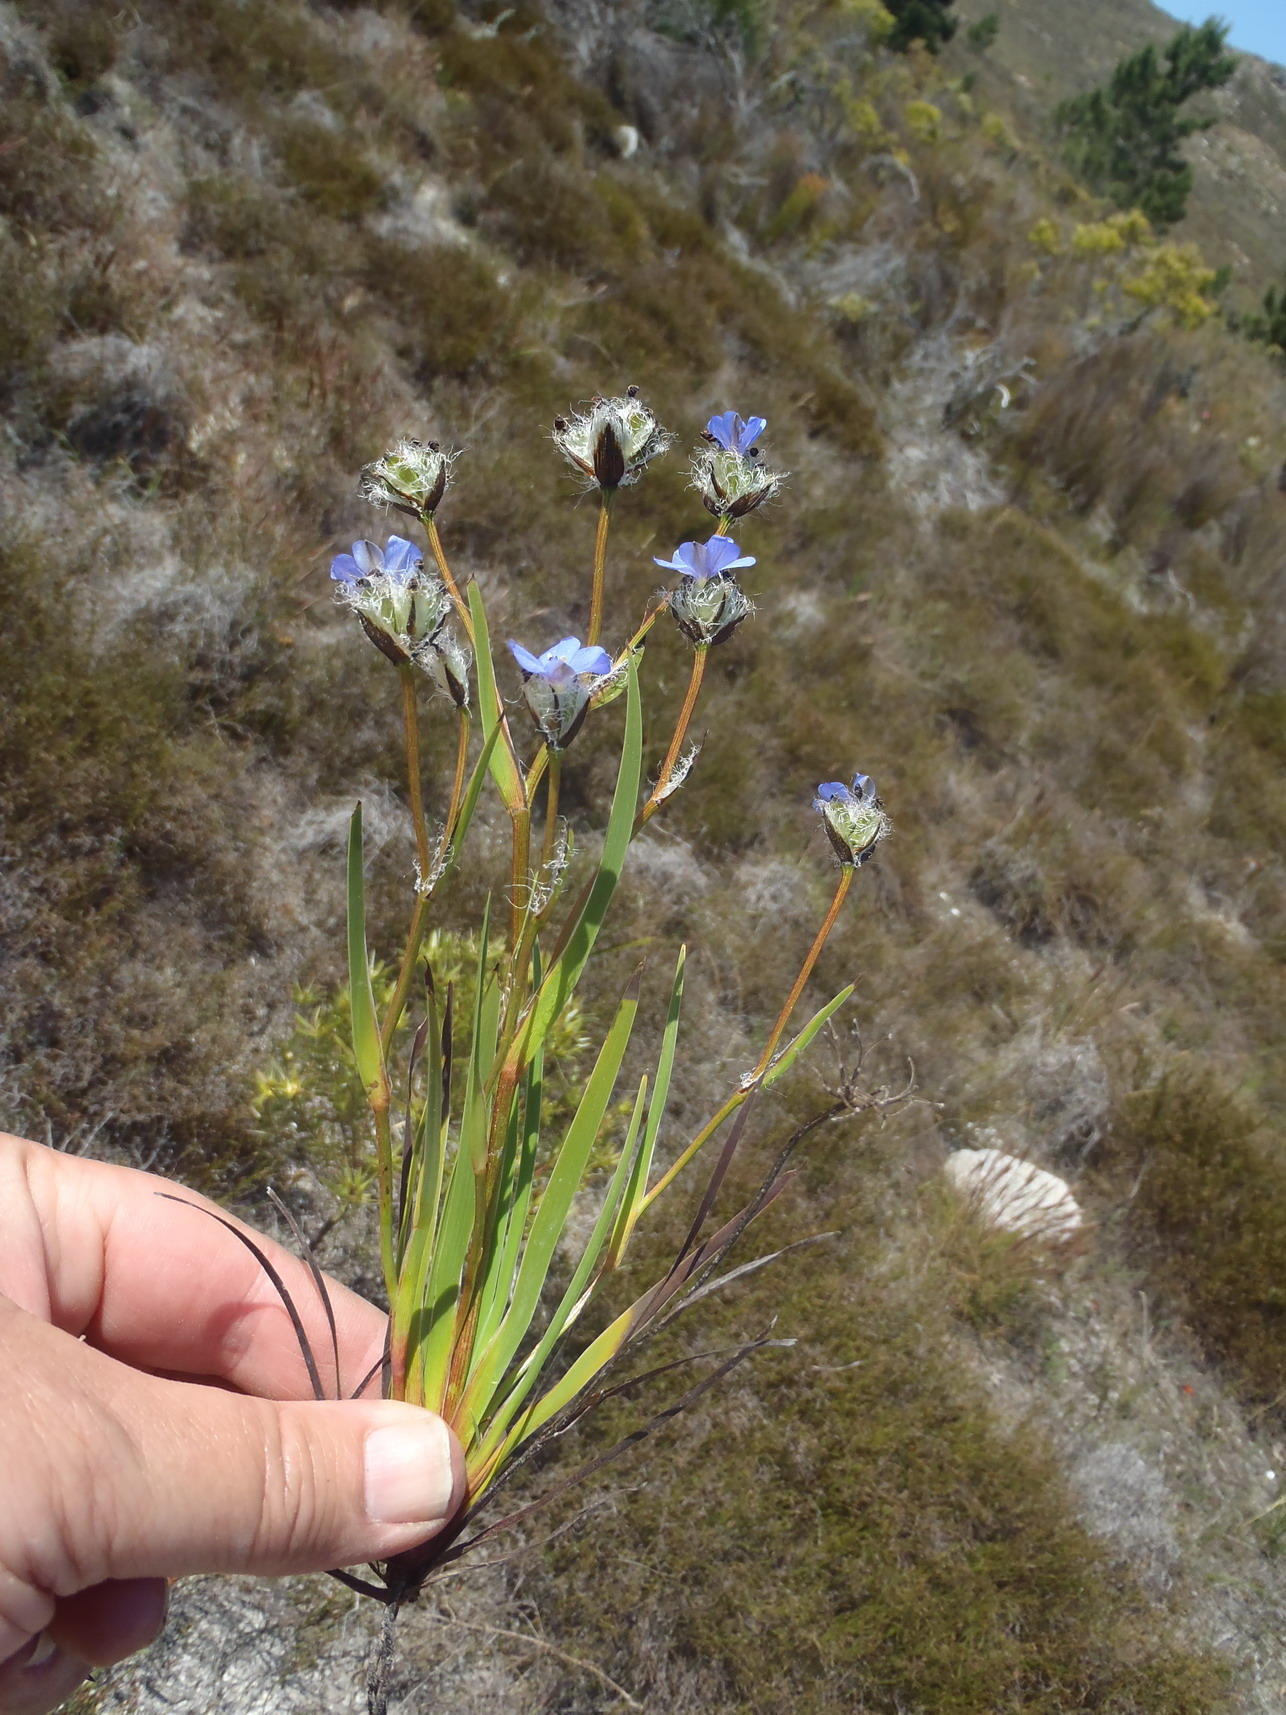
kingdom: Plantae
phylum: Tracheophyta
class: Liliopsida
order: Asparagales
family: Iridaceae
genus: Aristea
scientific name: Aristea africana
